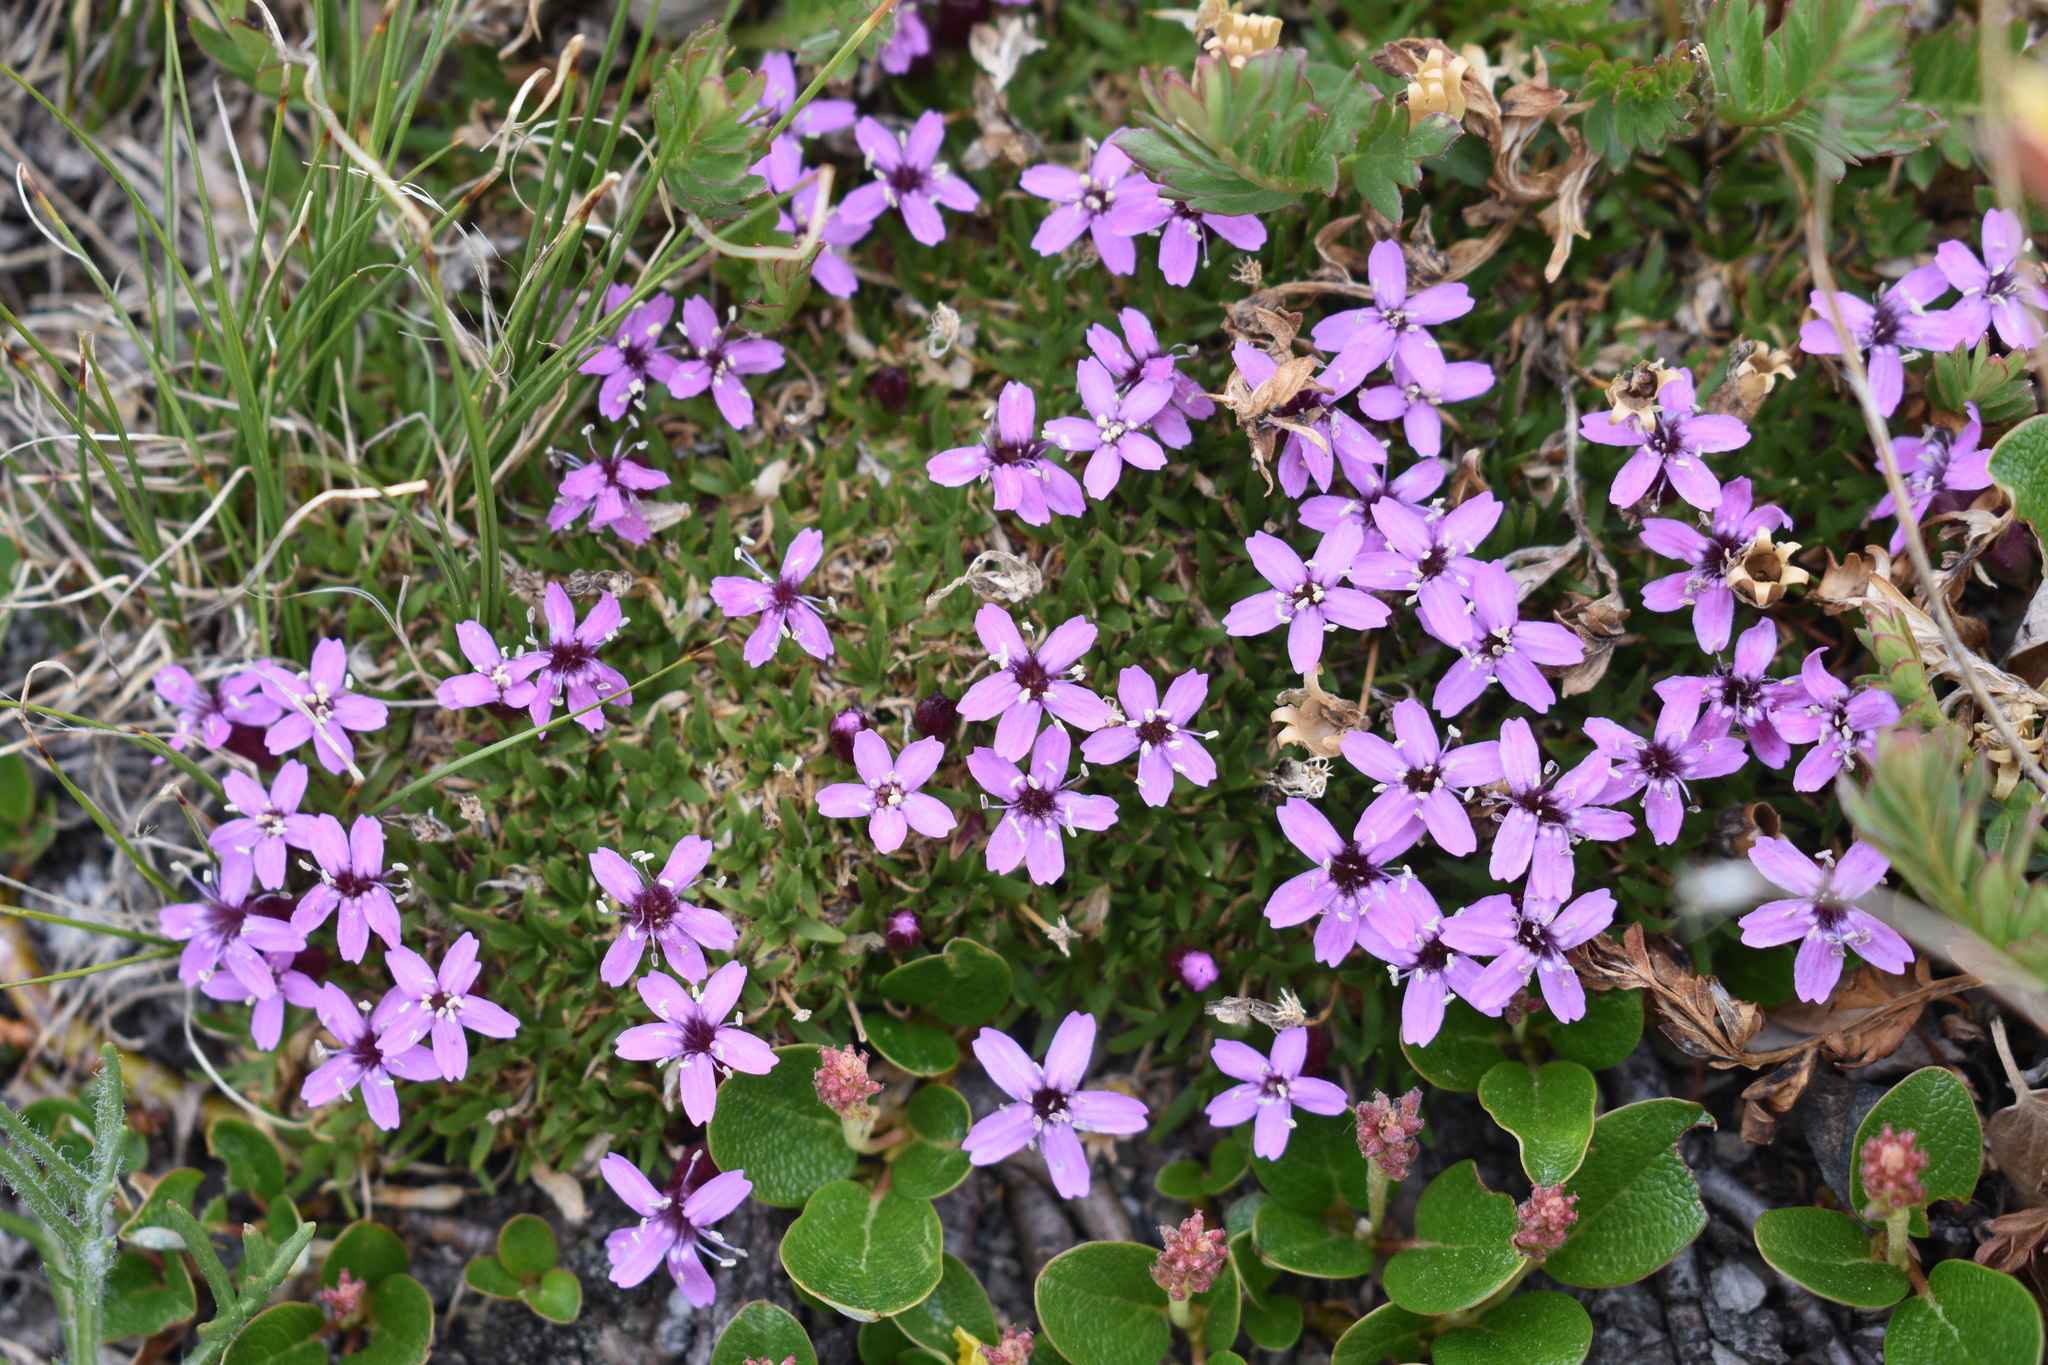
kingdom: Plantae
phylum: Tracheophyta
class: Magnoliopsida
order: Caryophyllales
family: Caryophyllaceae
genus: Silene
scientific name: Silene acaulis
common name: Moss campion
